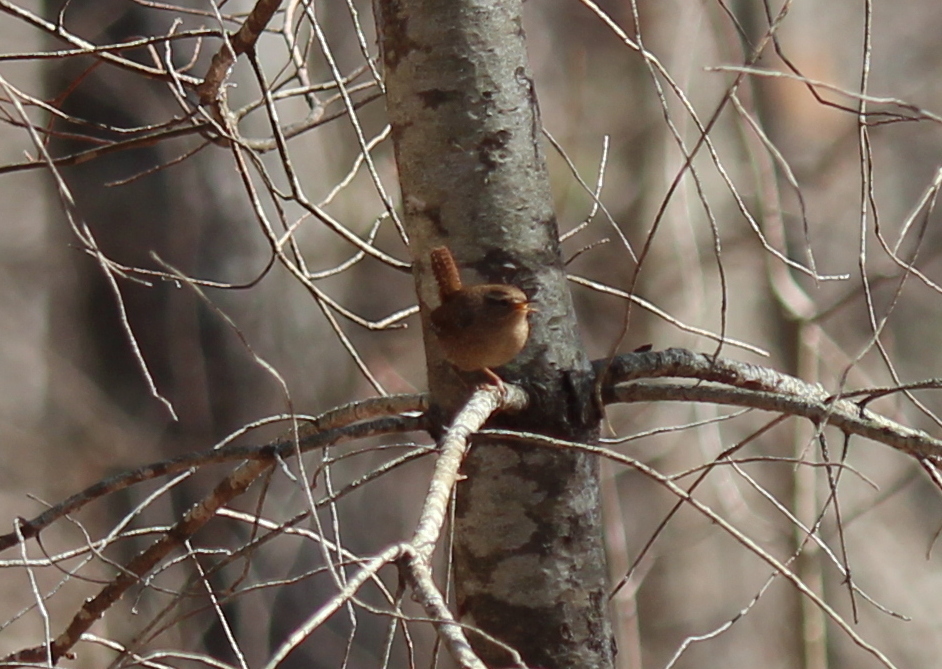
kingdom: Animalia
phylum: Chordata
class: Aves
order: Passeriformes
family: Troglodytidae
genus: Troglodytes
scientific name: Troglodytes hiemalis
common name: Winter wren
